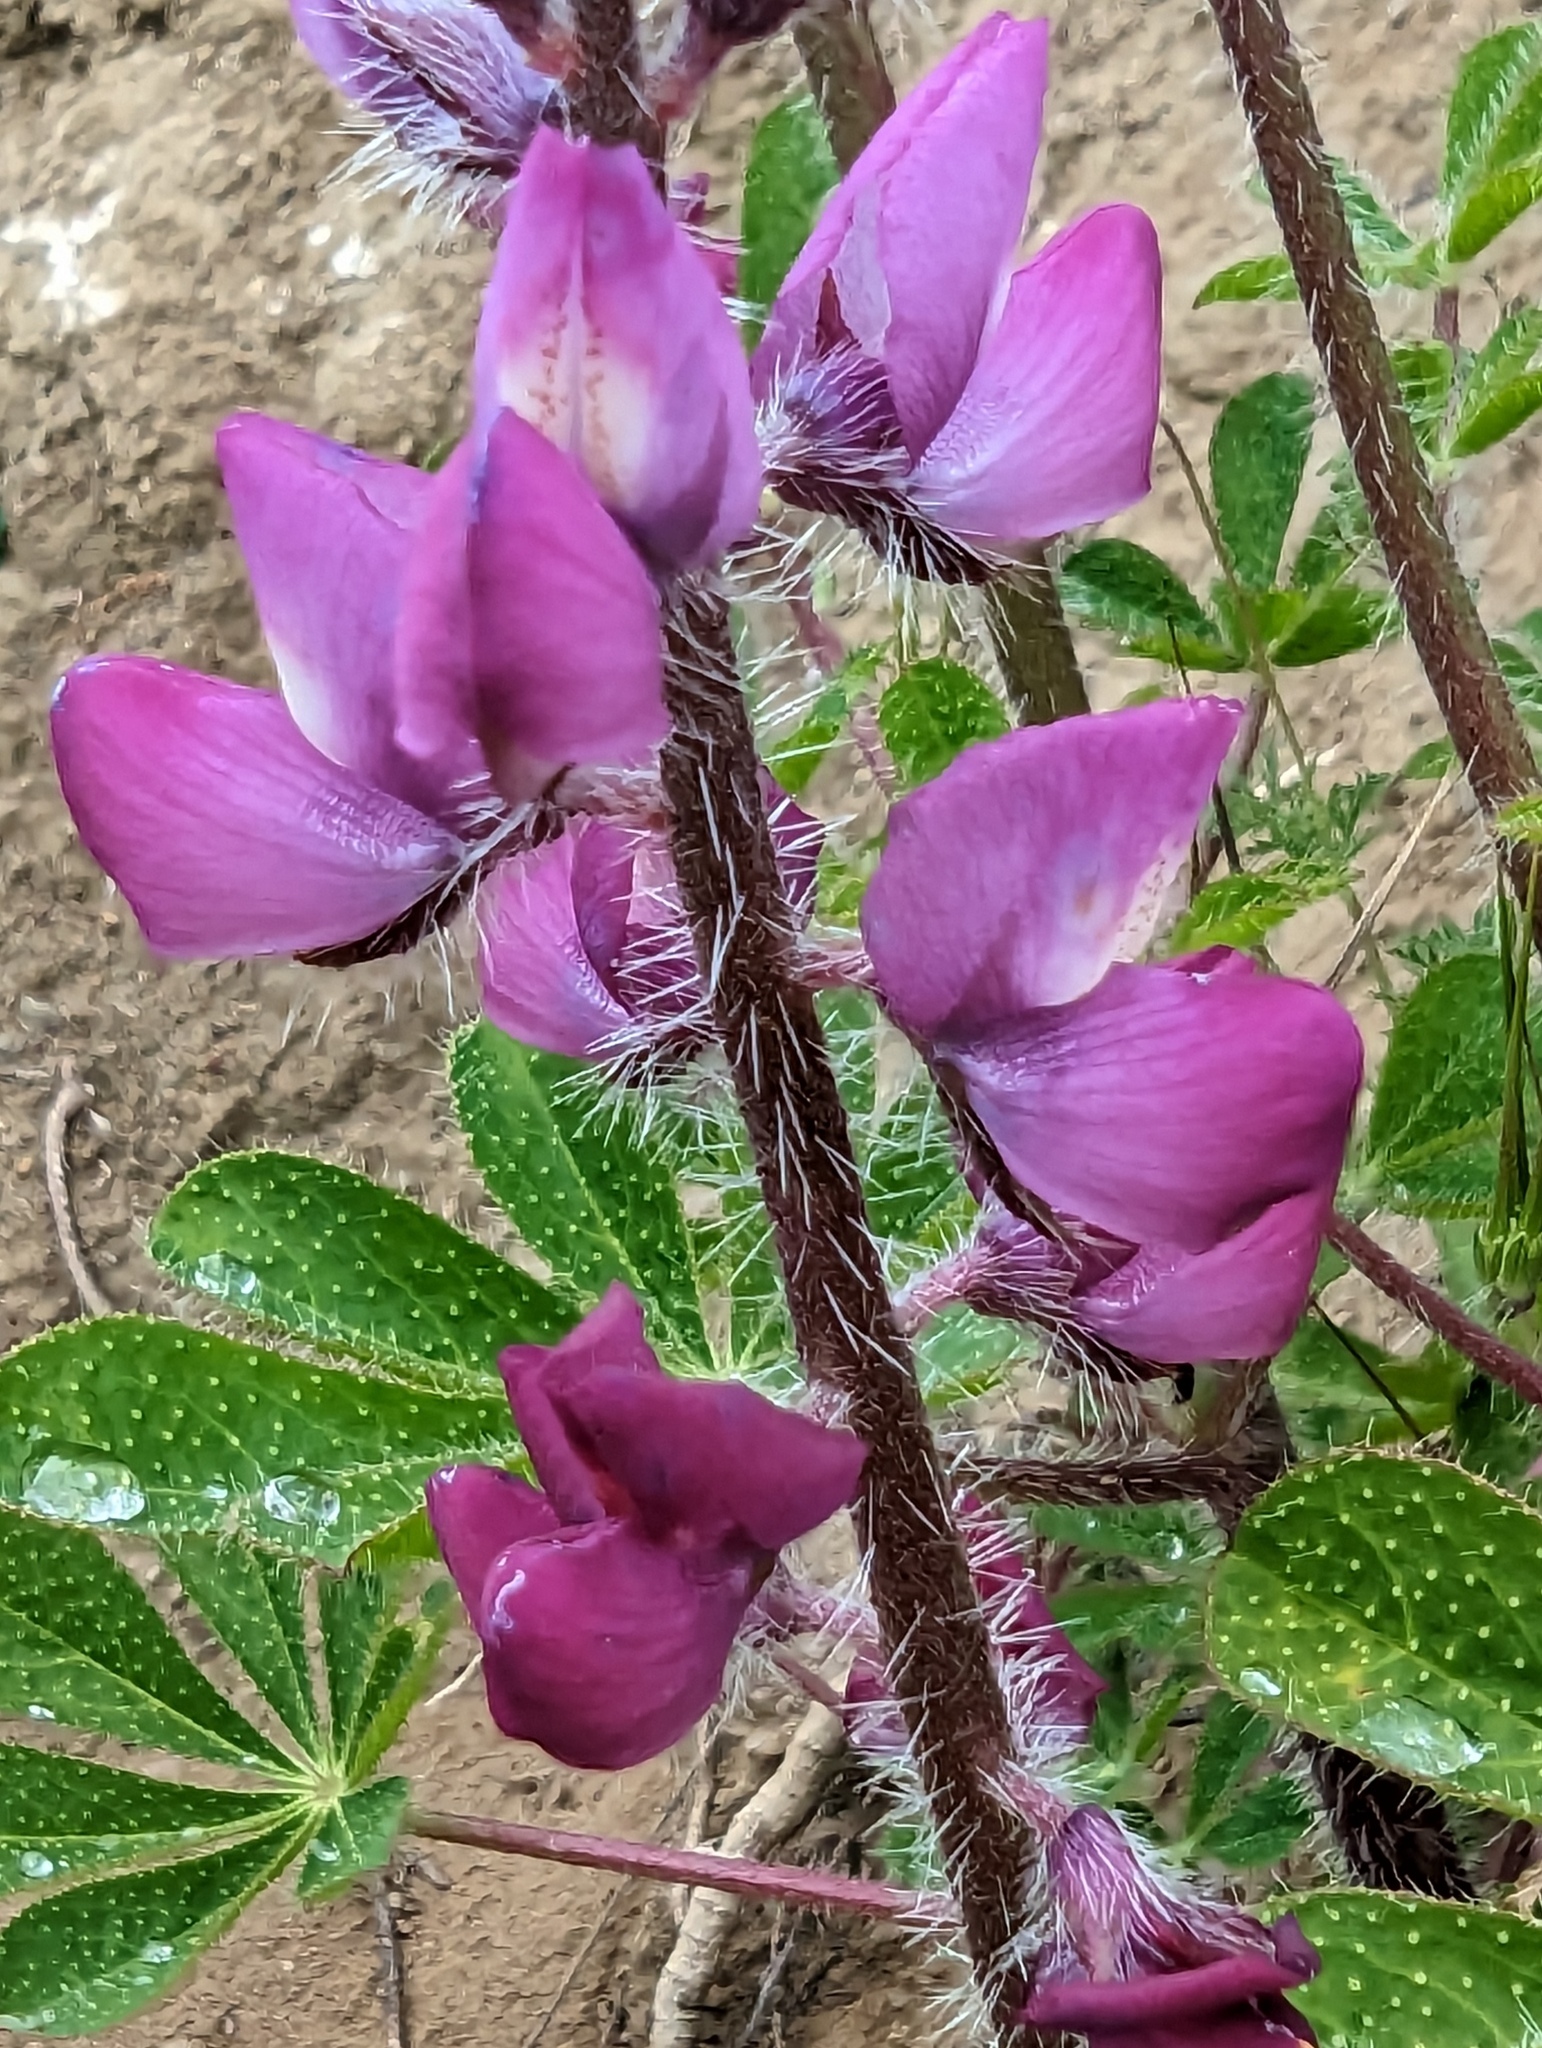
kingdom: Plantae
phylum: Tracheophyta
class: Magnoliopsida
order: Fabales
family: Fabaceae
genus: Lupinus
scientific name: Lupinus hirsutissimus
